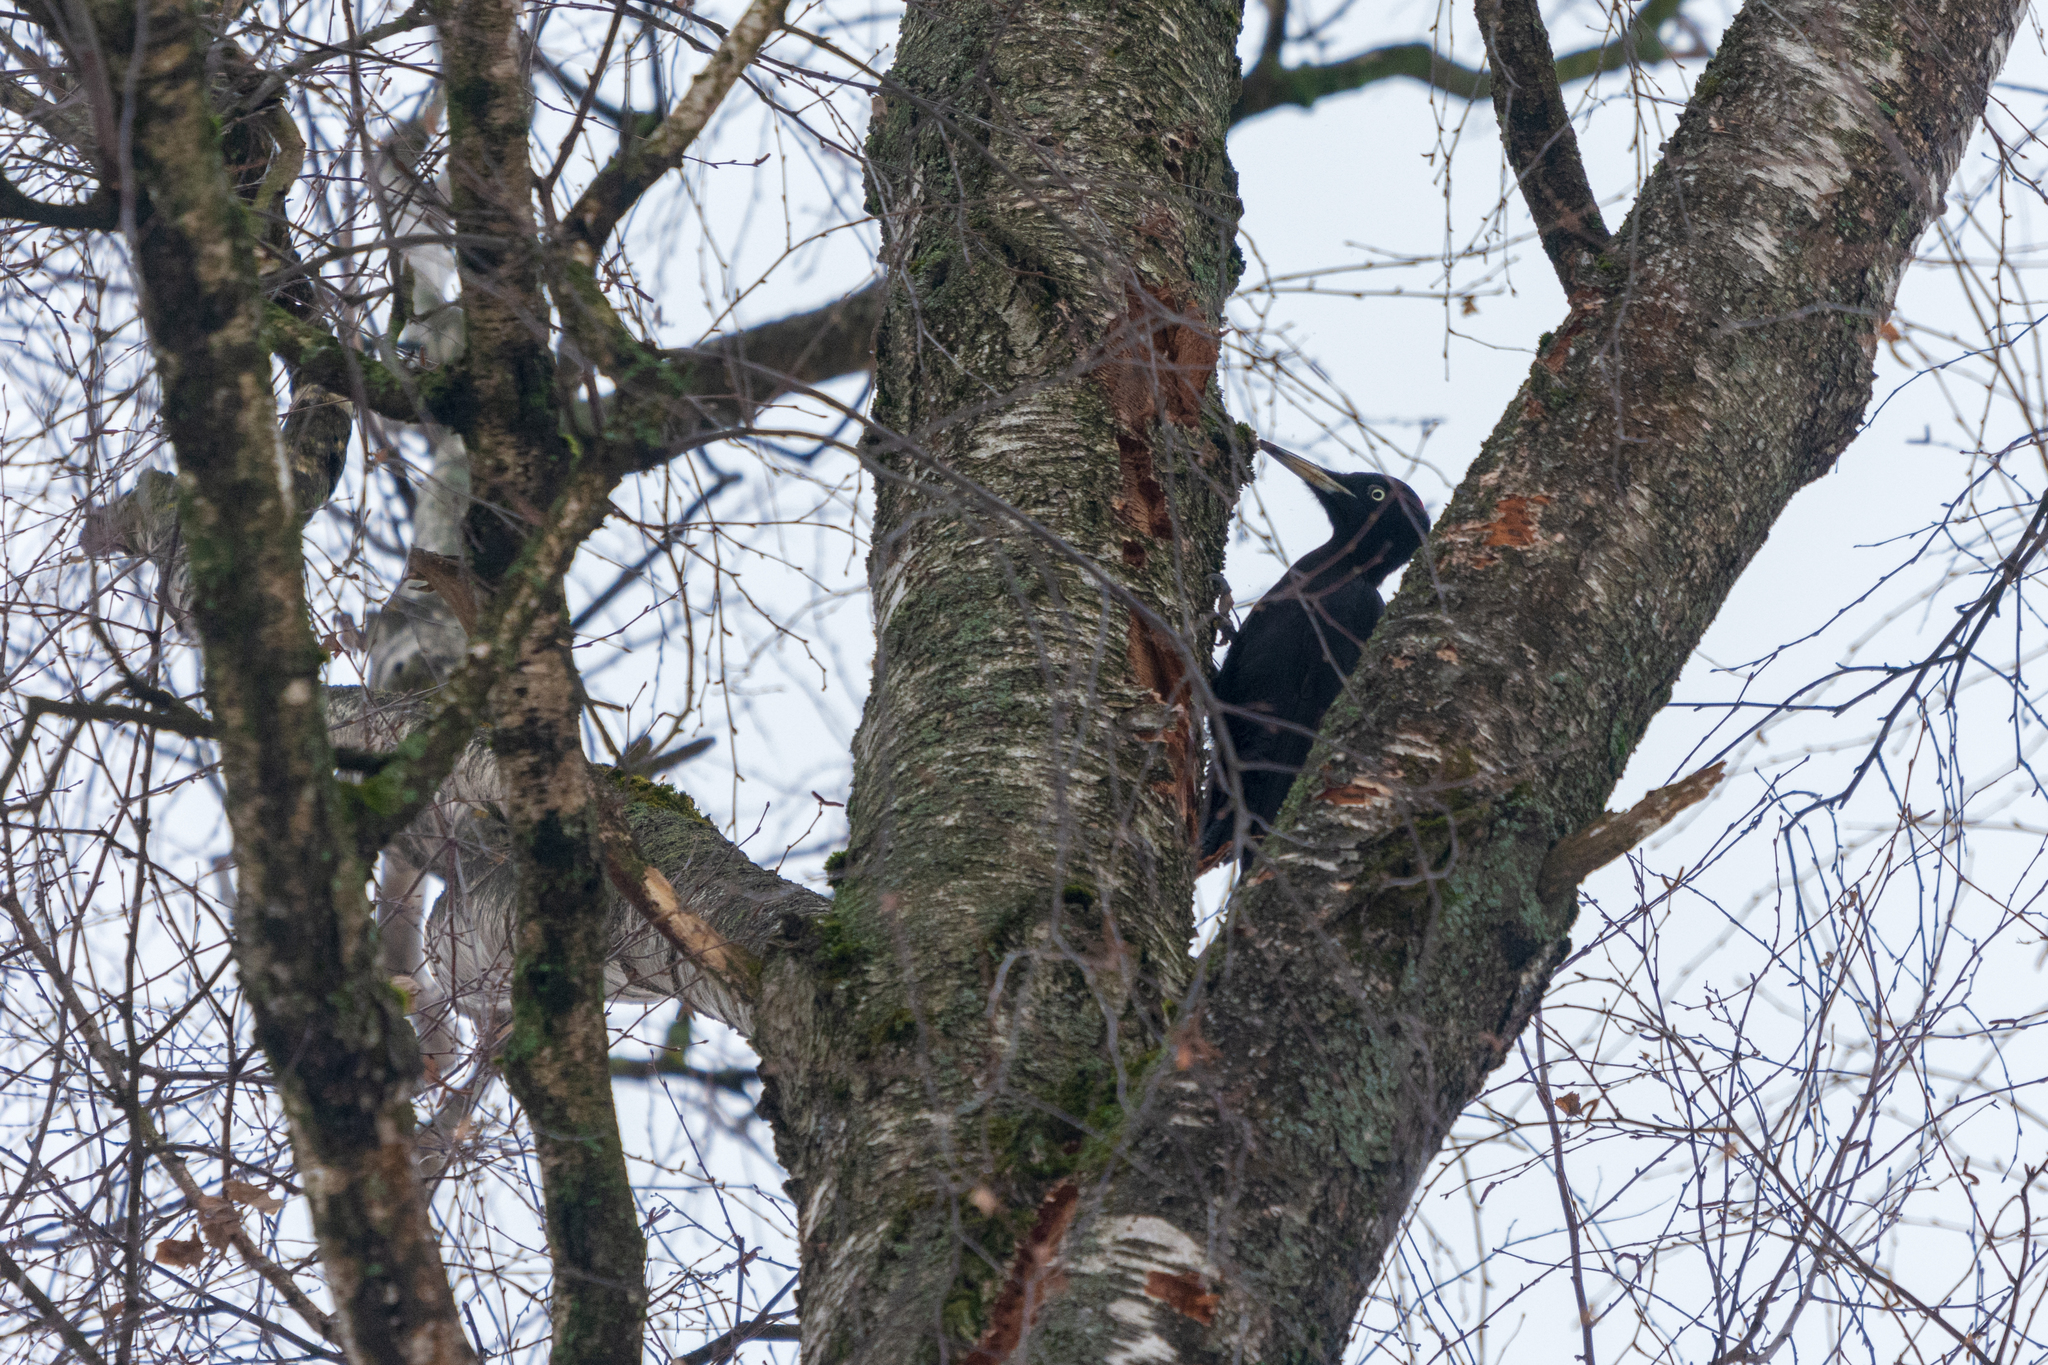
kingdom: Animalia
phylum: Chordata
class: Aves
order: Piciformes
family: Picidae
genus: Dryocopus
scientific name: Dryocopus martius
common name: Black woodpecker
